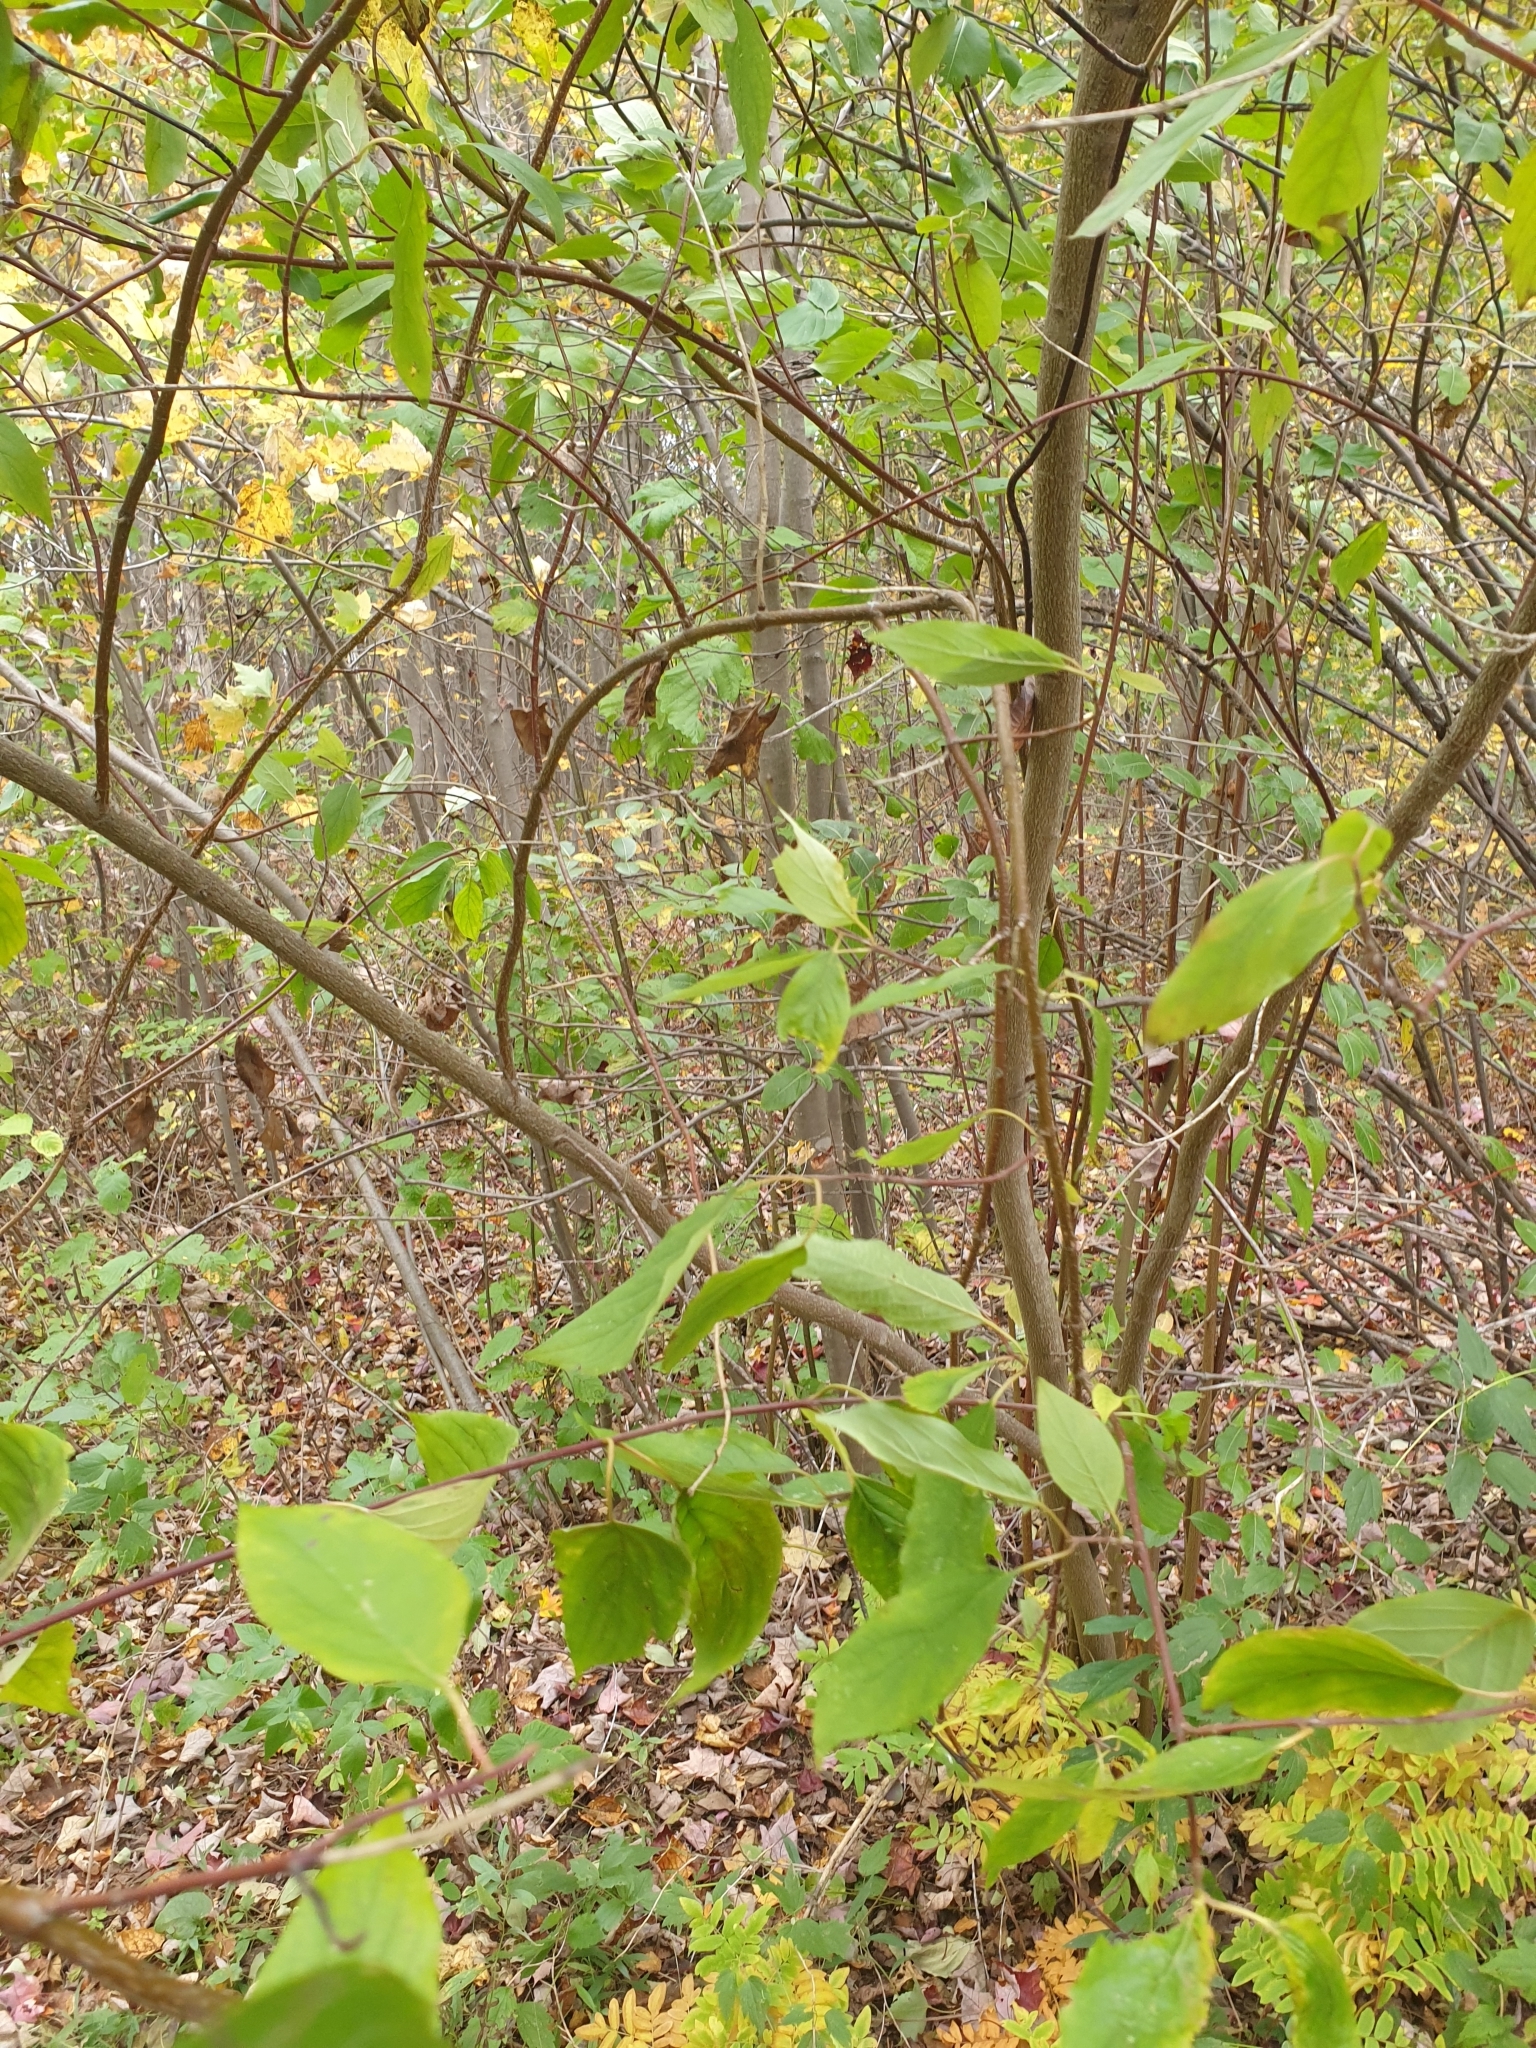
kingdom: Plantae
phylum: Tracheophyta
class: Magnoliopsida
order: Cornales
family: Cornaceae
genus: Cornus
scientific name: Cornus obliqua
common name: Pale dogwood
